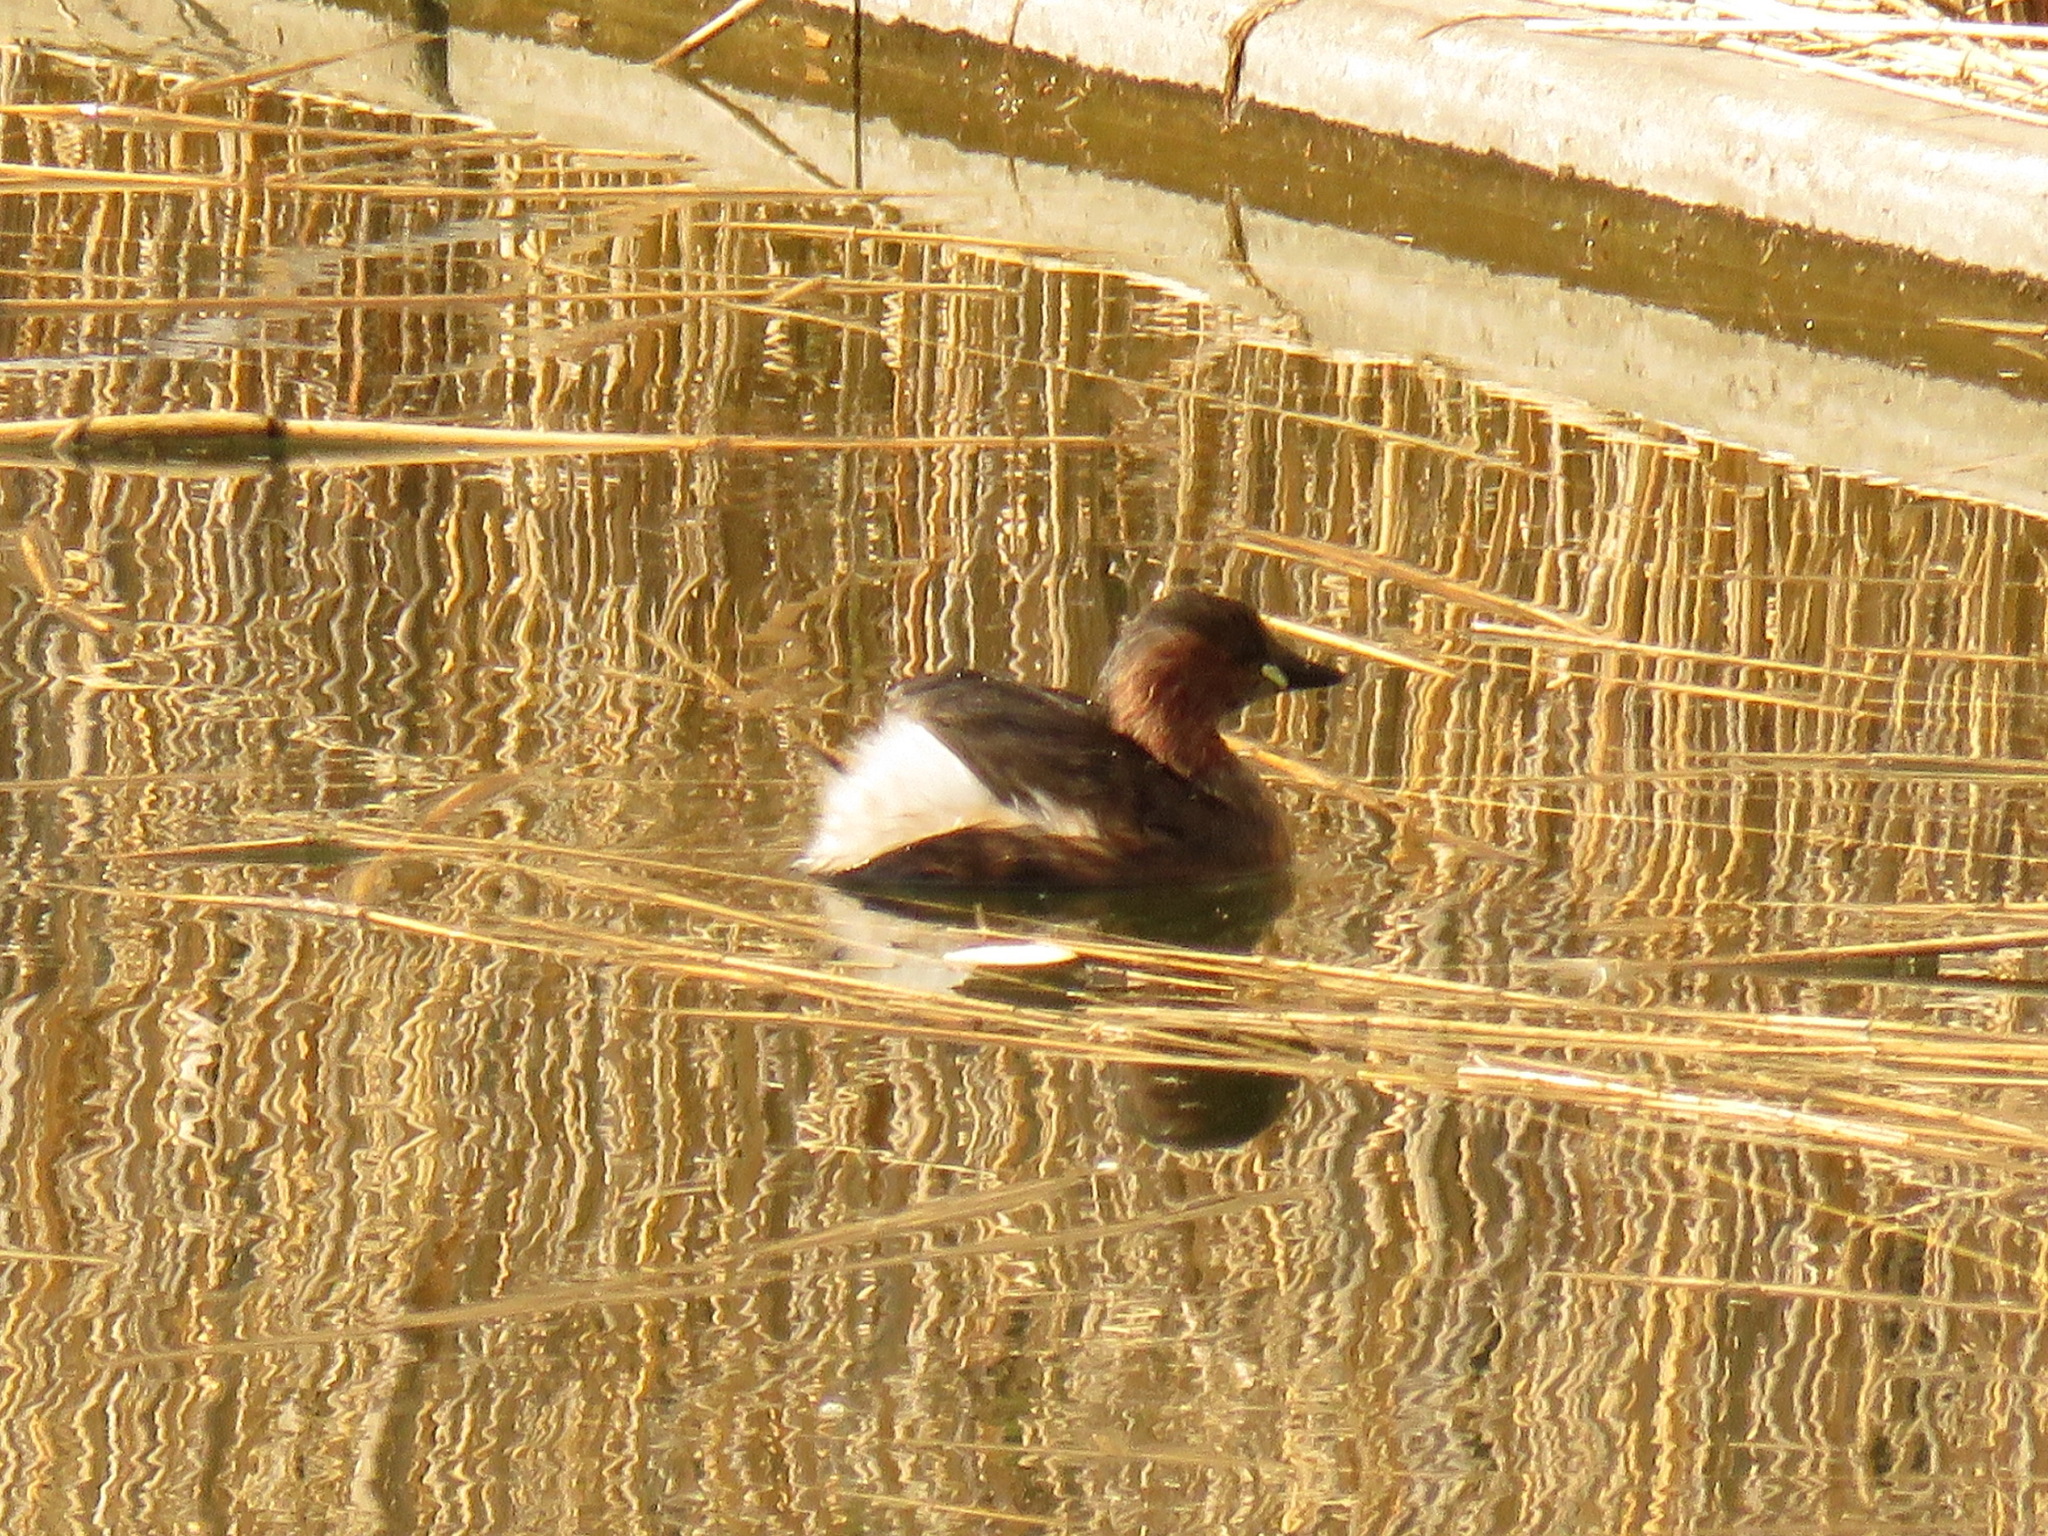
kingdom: Animalia
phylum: Chordata
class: Aves
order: Podicipediformes
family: Podicipedidae
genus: Tachybaptus
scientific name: Tachybaptus ruficollis
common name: Little grebe
